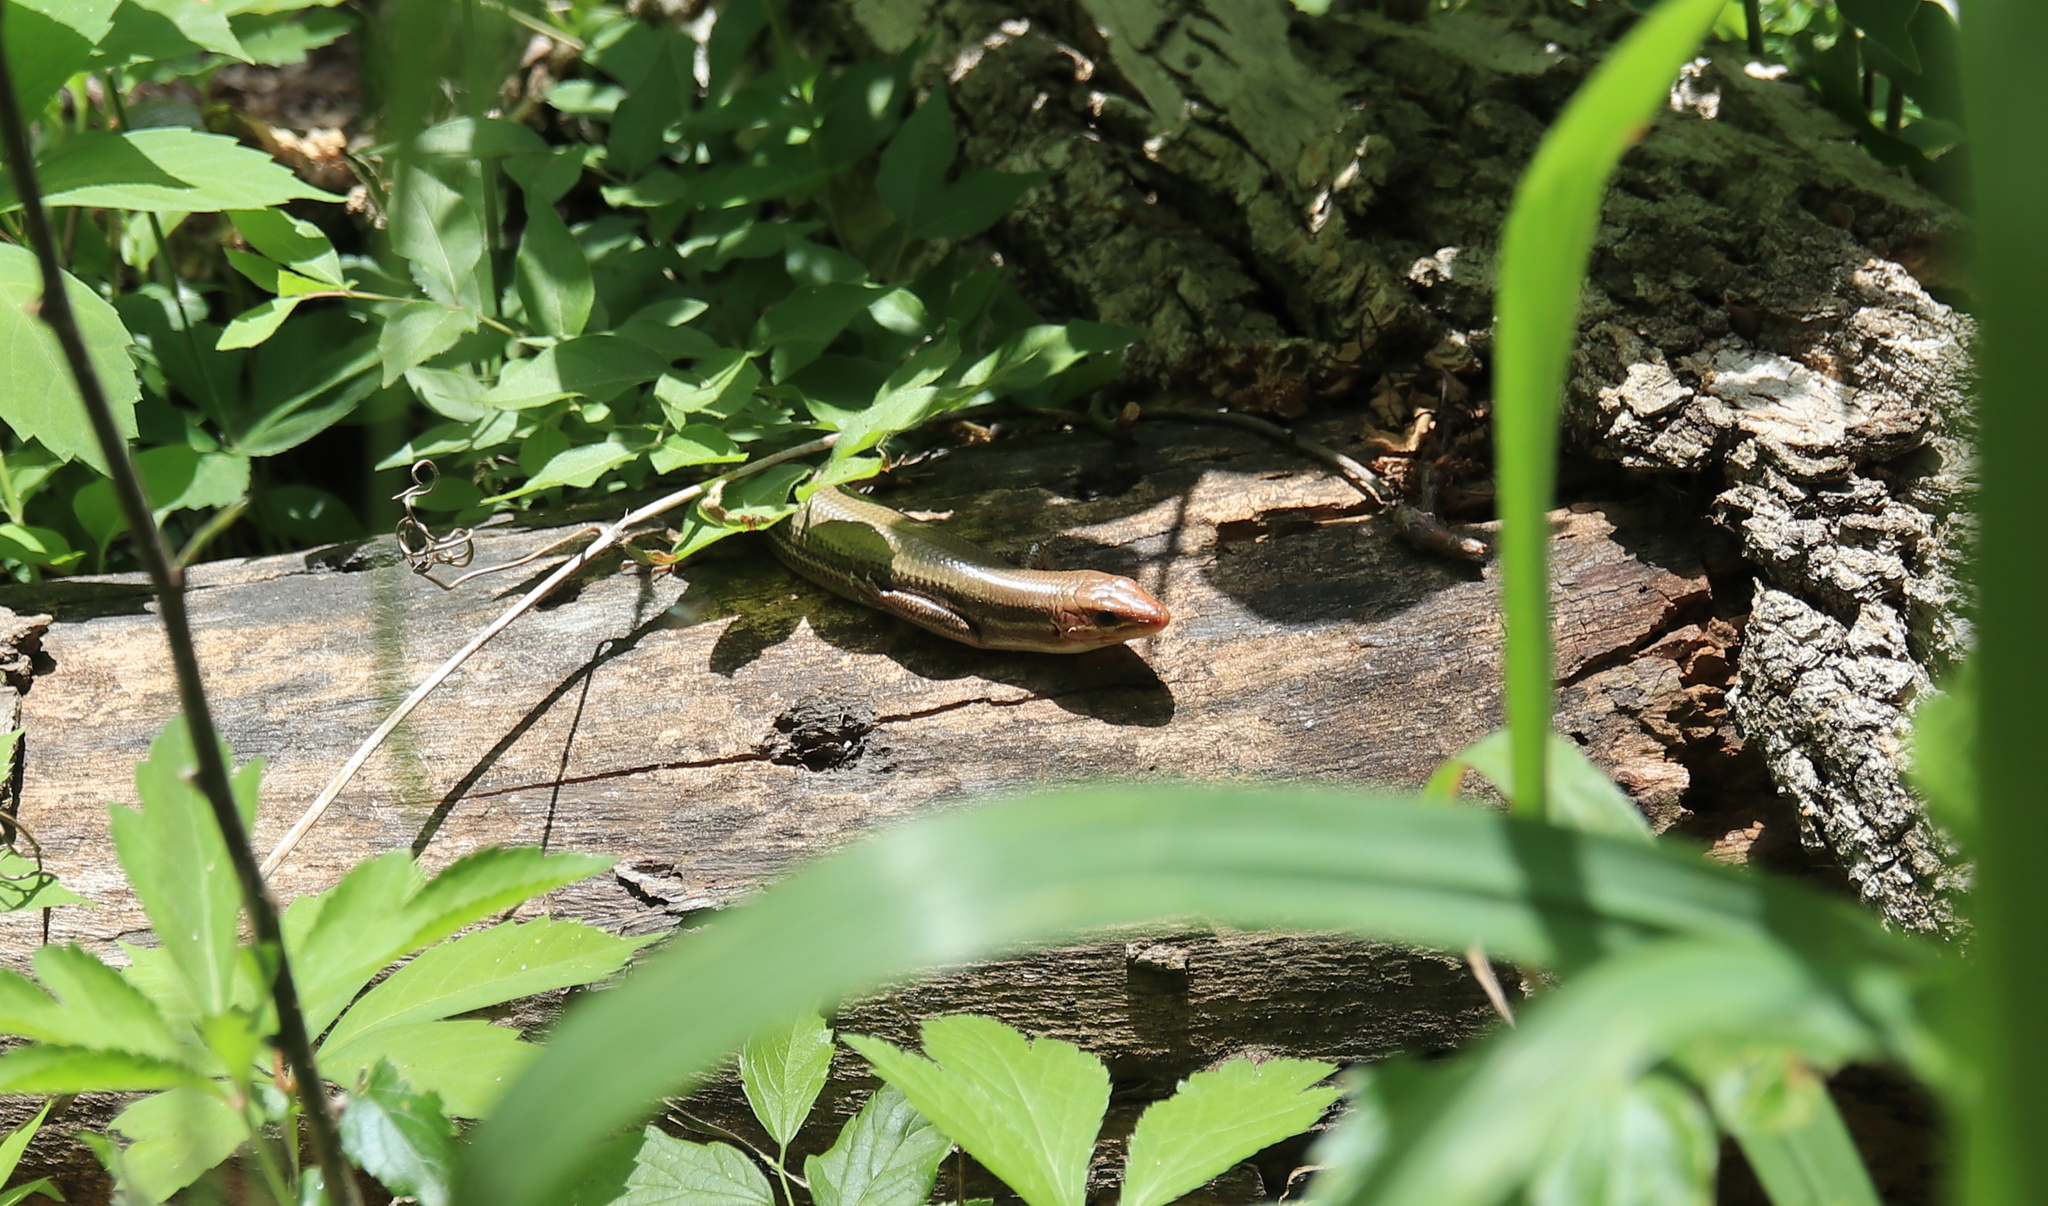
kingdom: Animalia
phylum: Chordata
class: Squamata
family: Scincidae
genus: Plestiodon
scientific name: Plestiodon laticeps
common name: Broadhead skink
